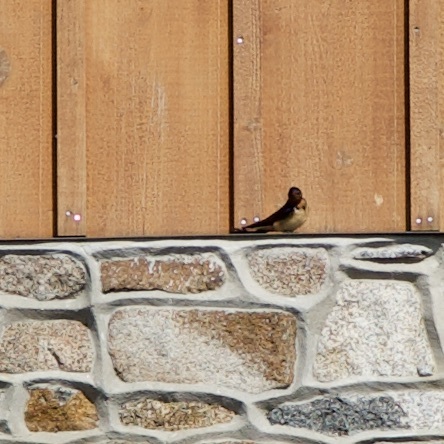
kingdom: Animalia
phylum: Chordata
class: Aves
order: Passeriformes
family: Hirundinidae
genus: Hirundo
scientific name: Hirundo rustica
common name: Barn swallow
